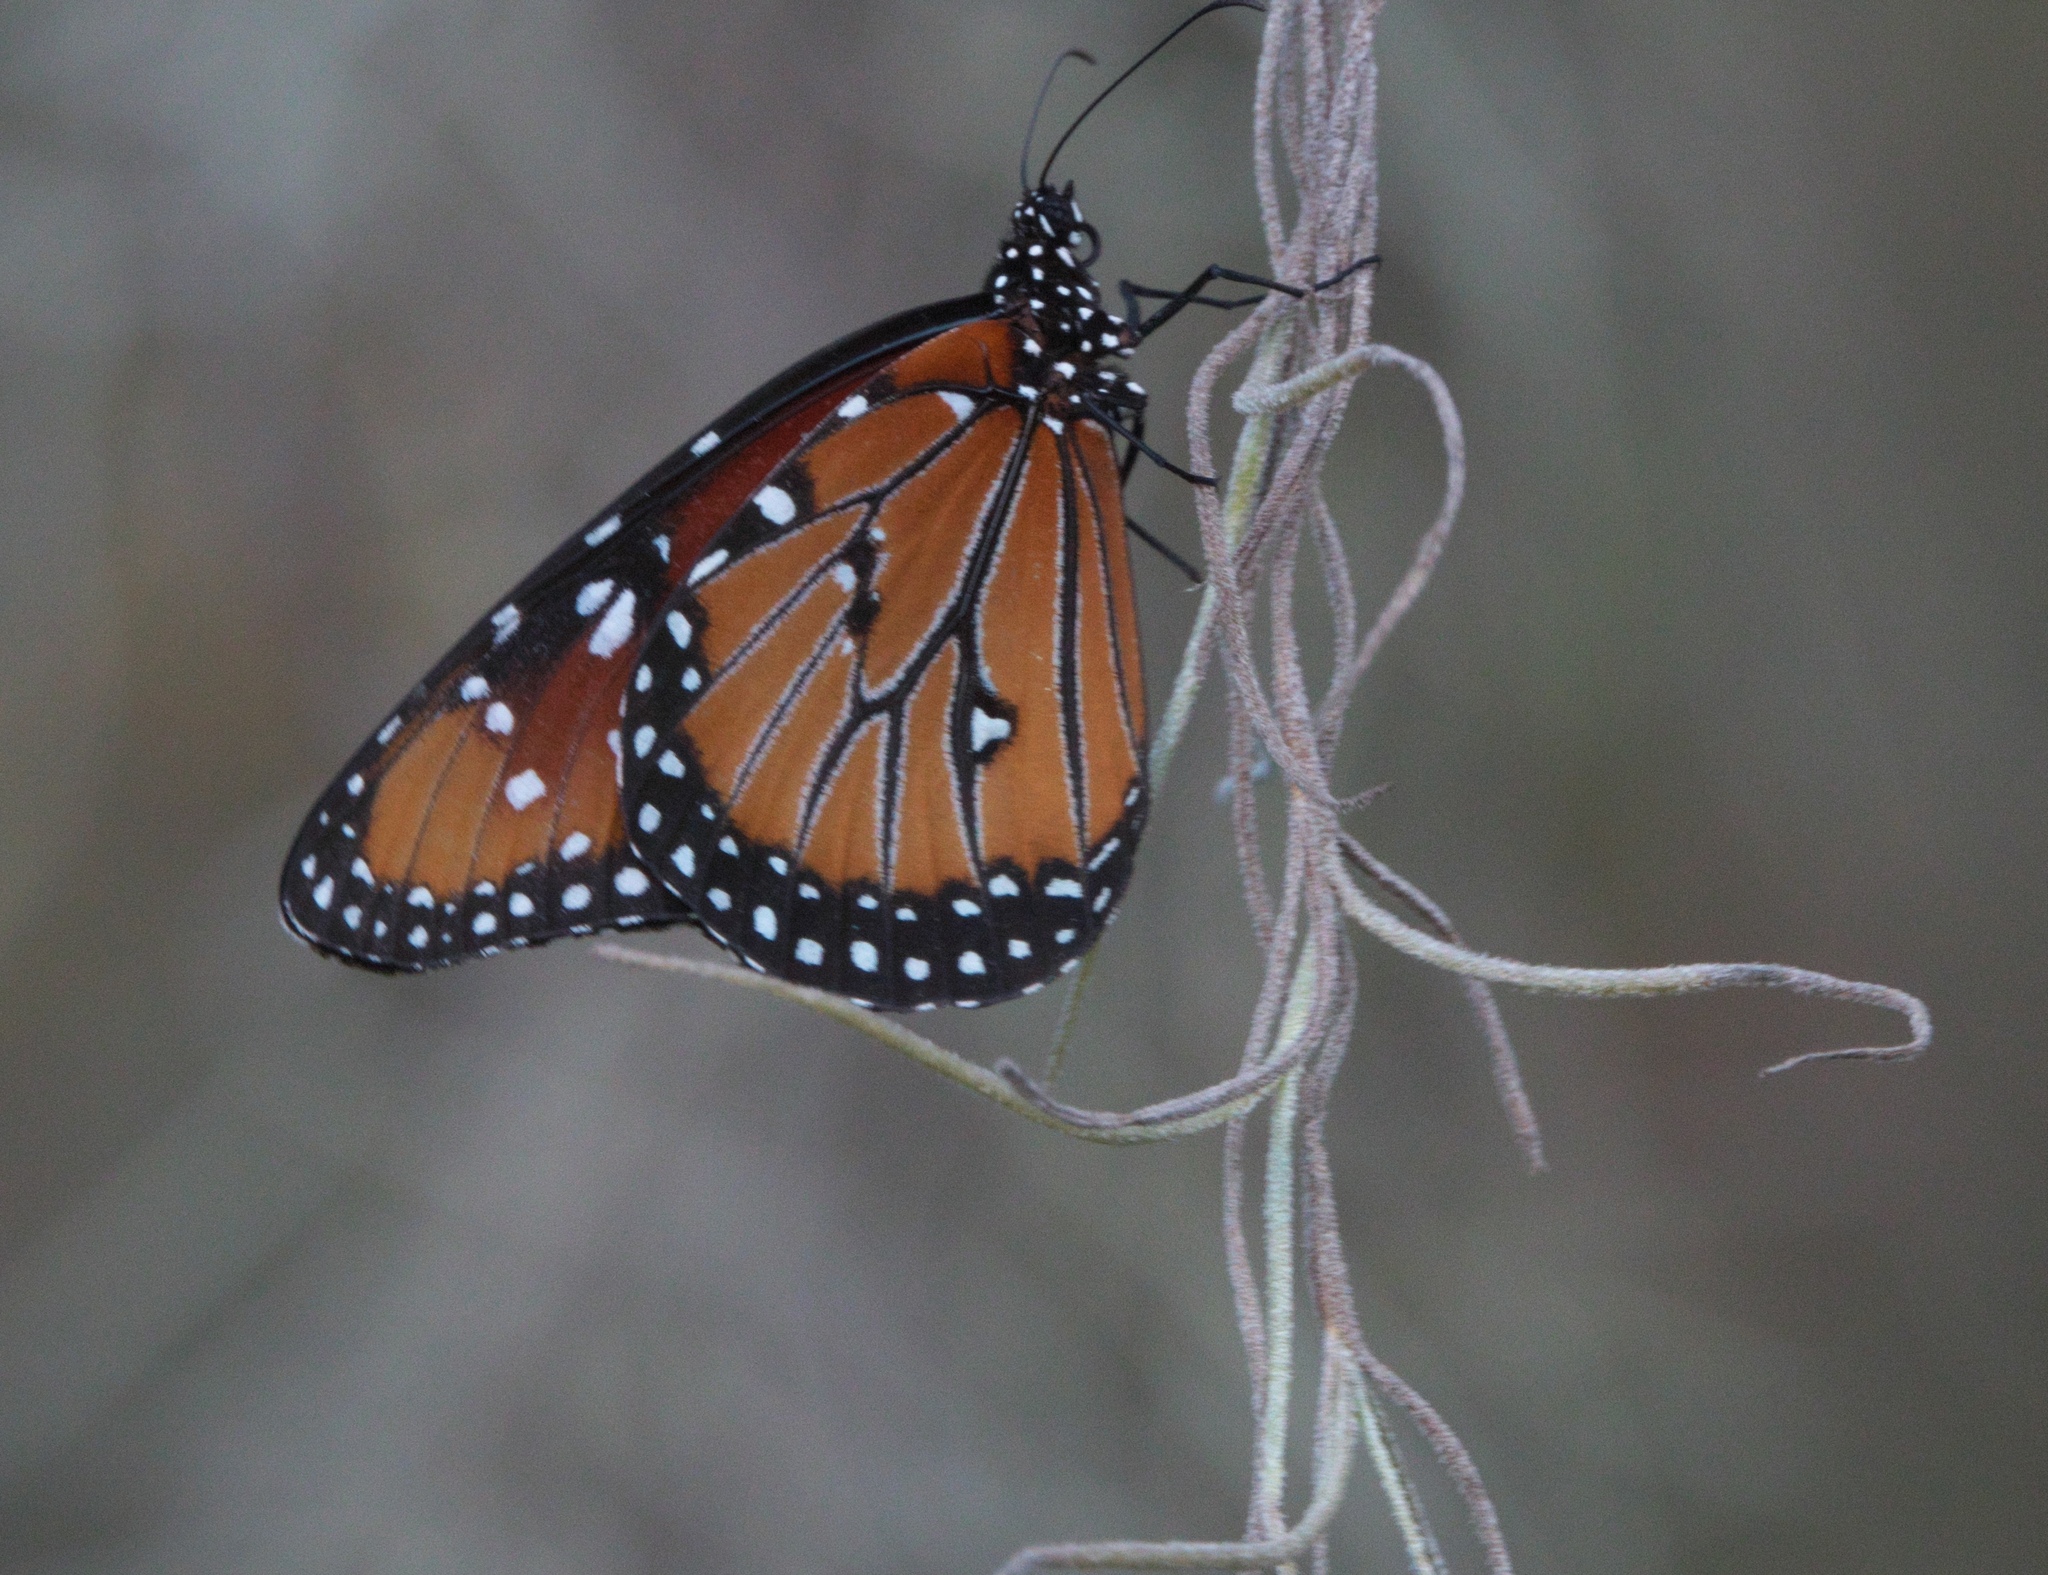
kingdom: Animalia
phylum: Arthropoda
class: Insecta
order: Lepidoptera
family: Nymphalidae
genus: Danaus
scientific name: Danaus gilippus
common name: Queen
